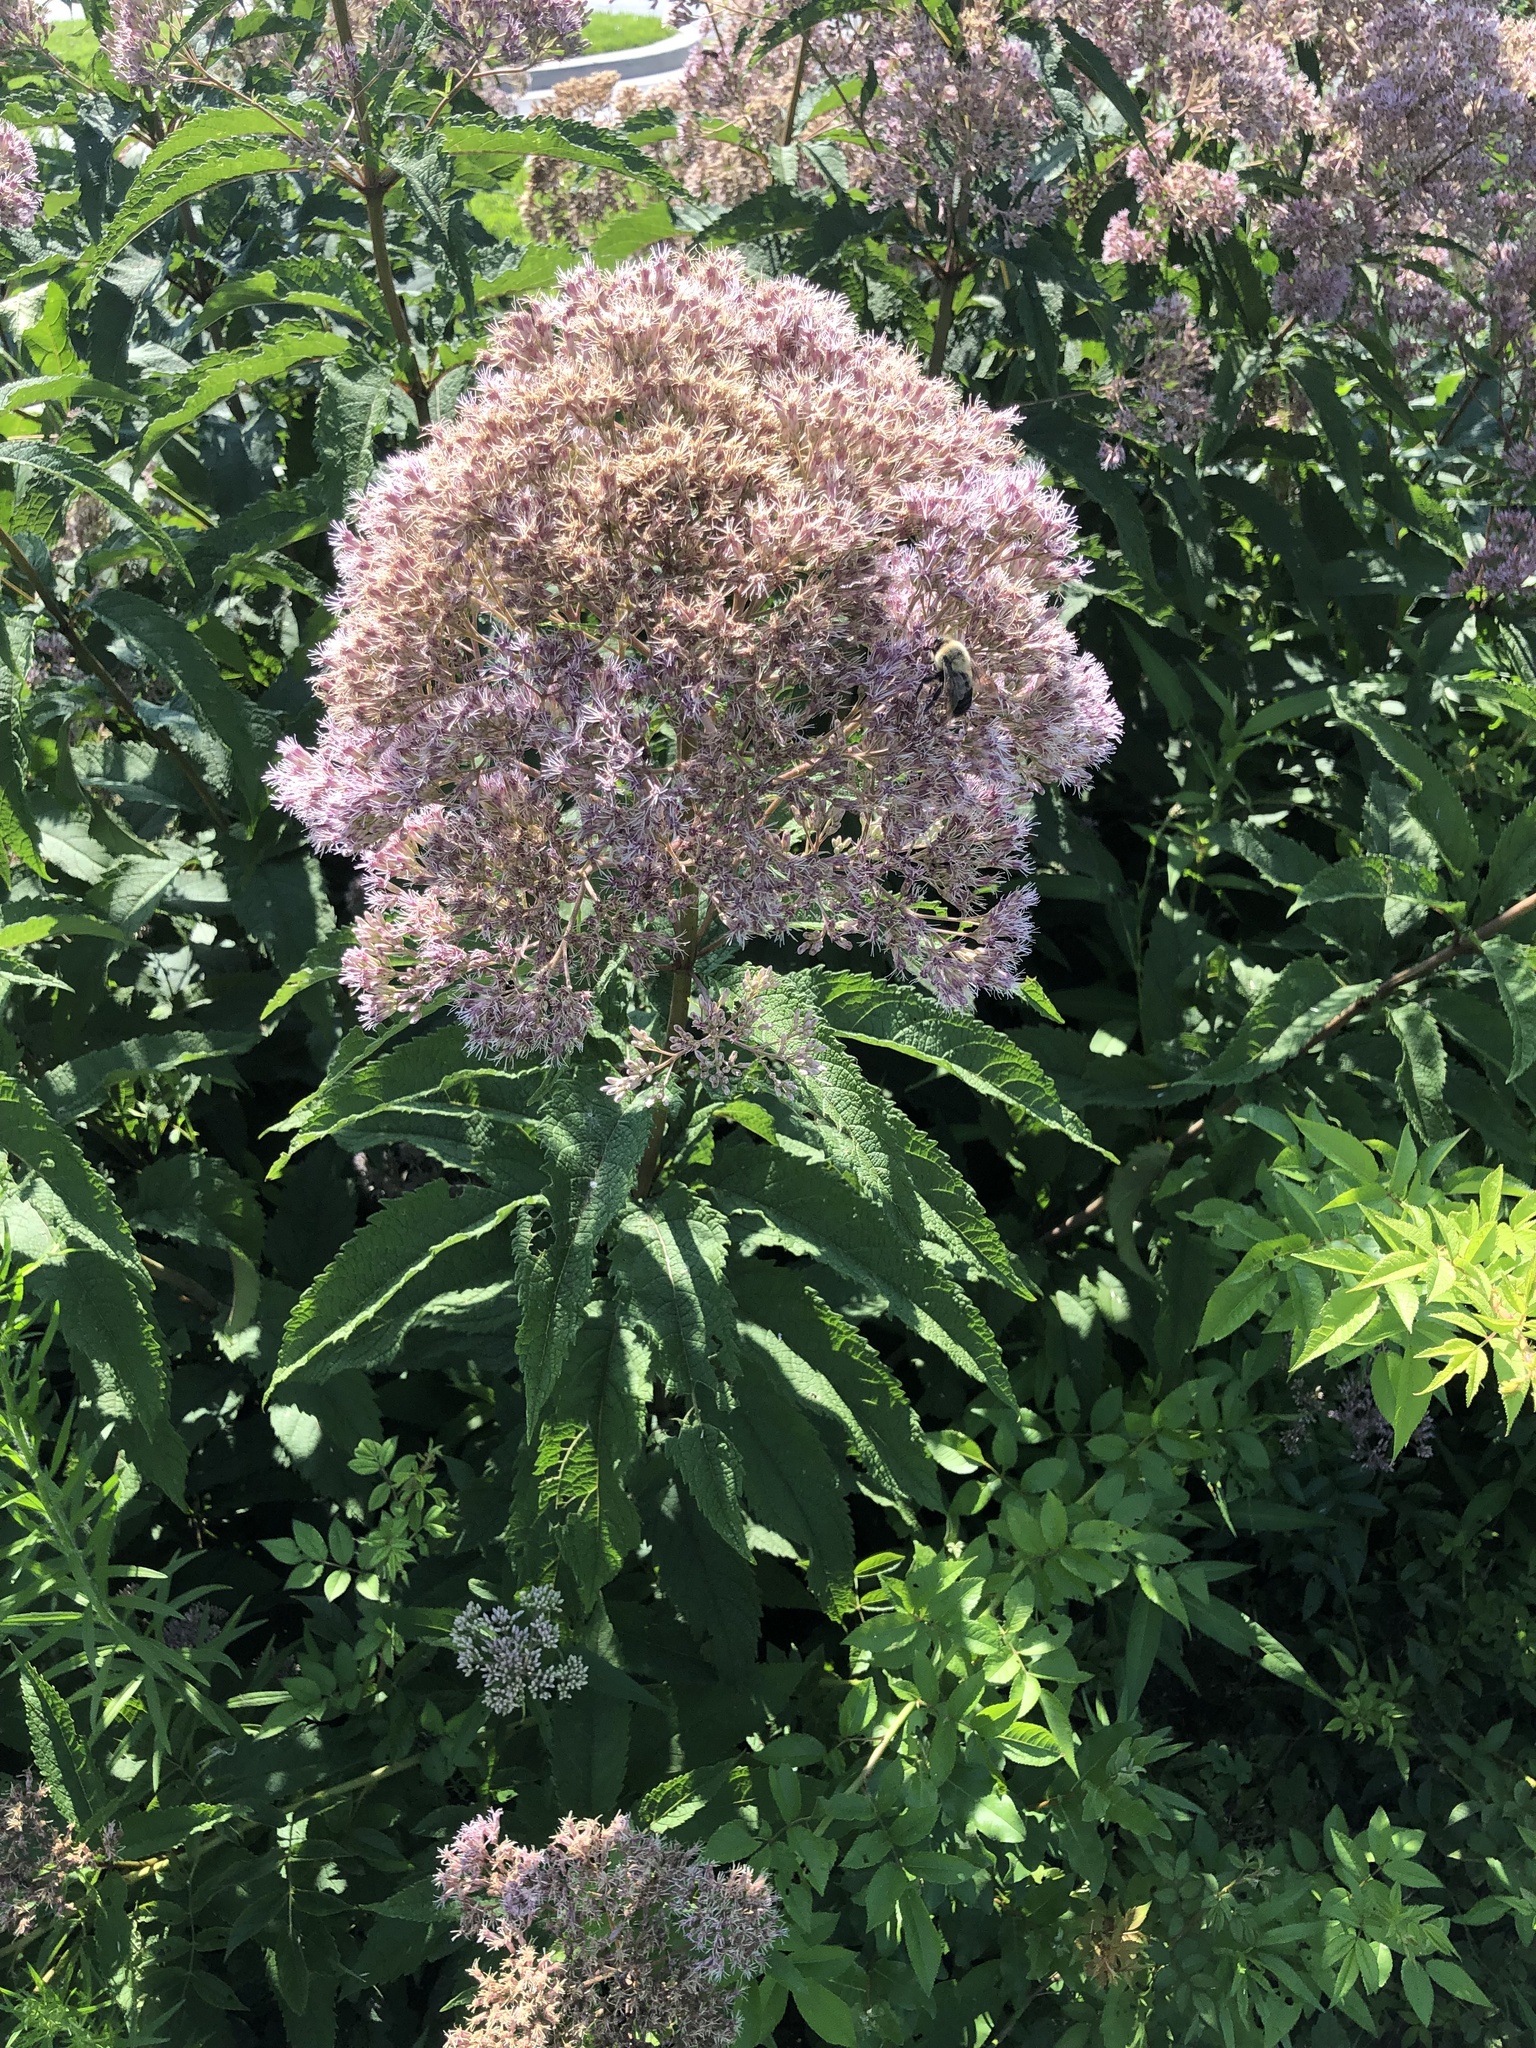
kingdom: Plantae
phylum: Tracheophyta
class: Magnoliopsida
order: Asterales
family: Asteraceae
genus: Eutrochium
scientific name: Eutrochium fistulosum
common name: Trumpetweed
